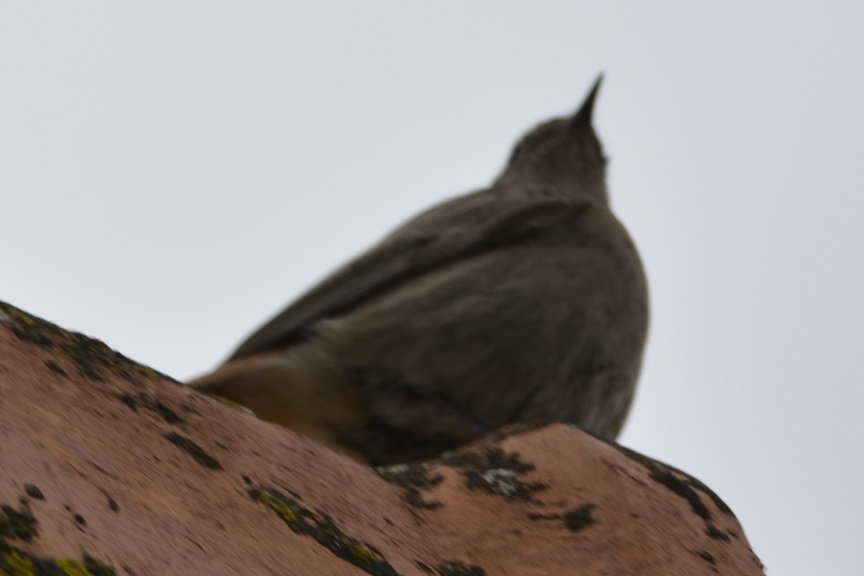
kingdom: Animalia
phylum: Chordata
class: Aves
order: Passeriformes
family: Muscicapidae
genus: Phoenicurus
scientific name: Phoenicurus ochruros
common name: Black redstart
